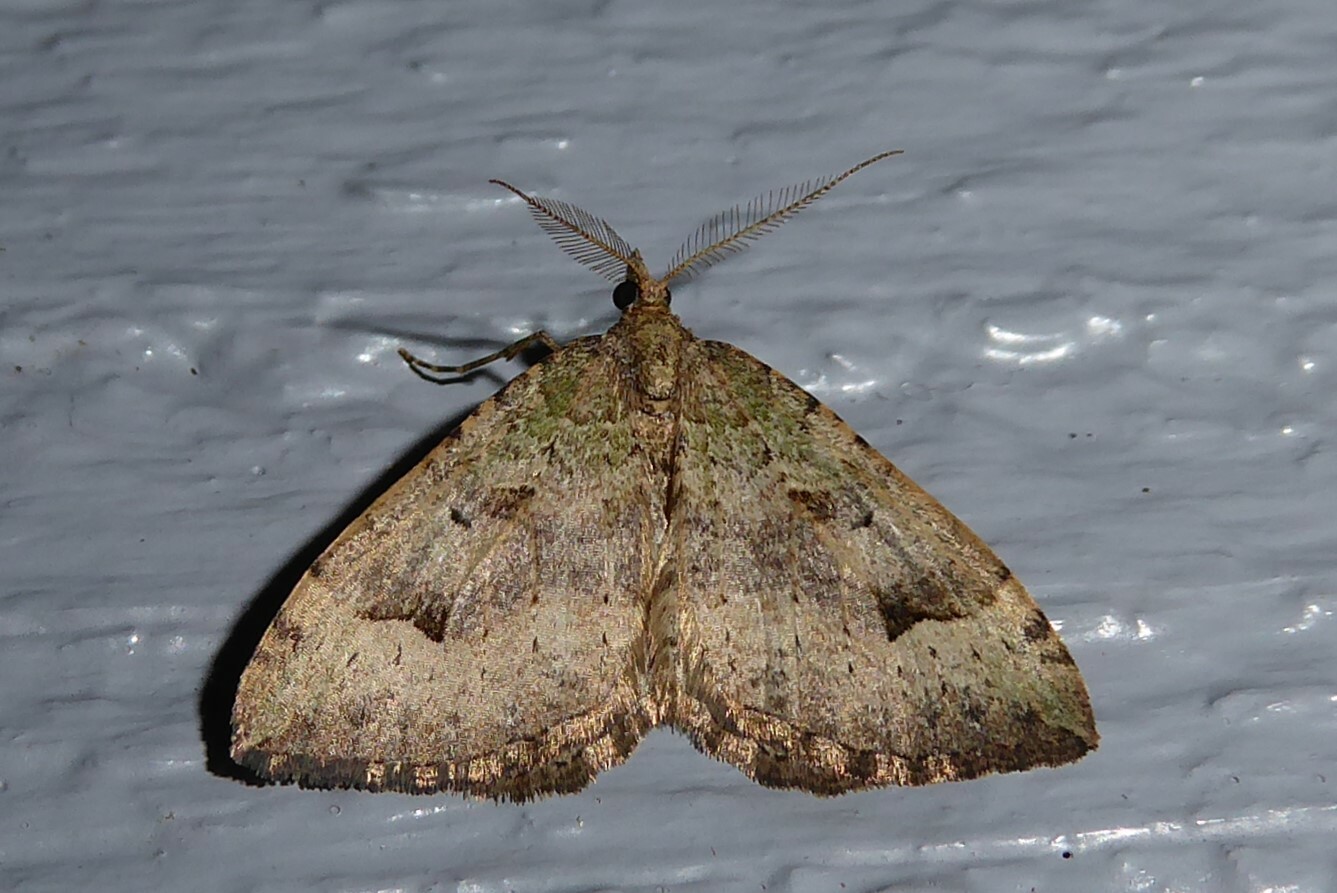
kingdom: Animalia
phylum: Arthropoda
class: Insecta
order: Lepidoptera
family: Geometridae
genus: Epyaxa
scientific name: Epyaxa rosearia
